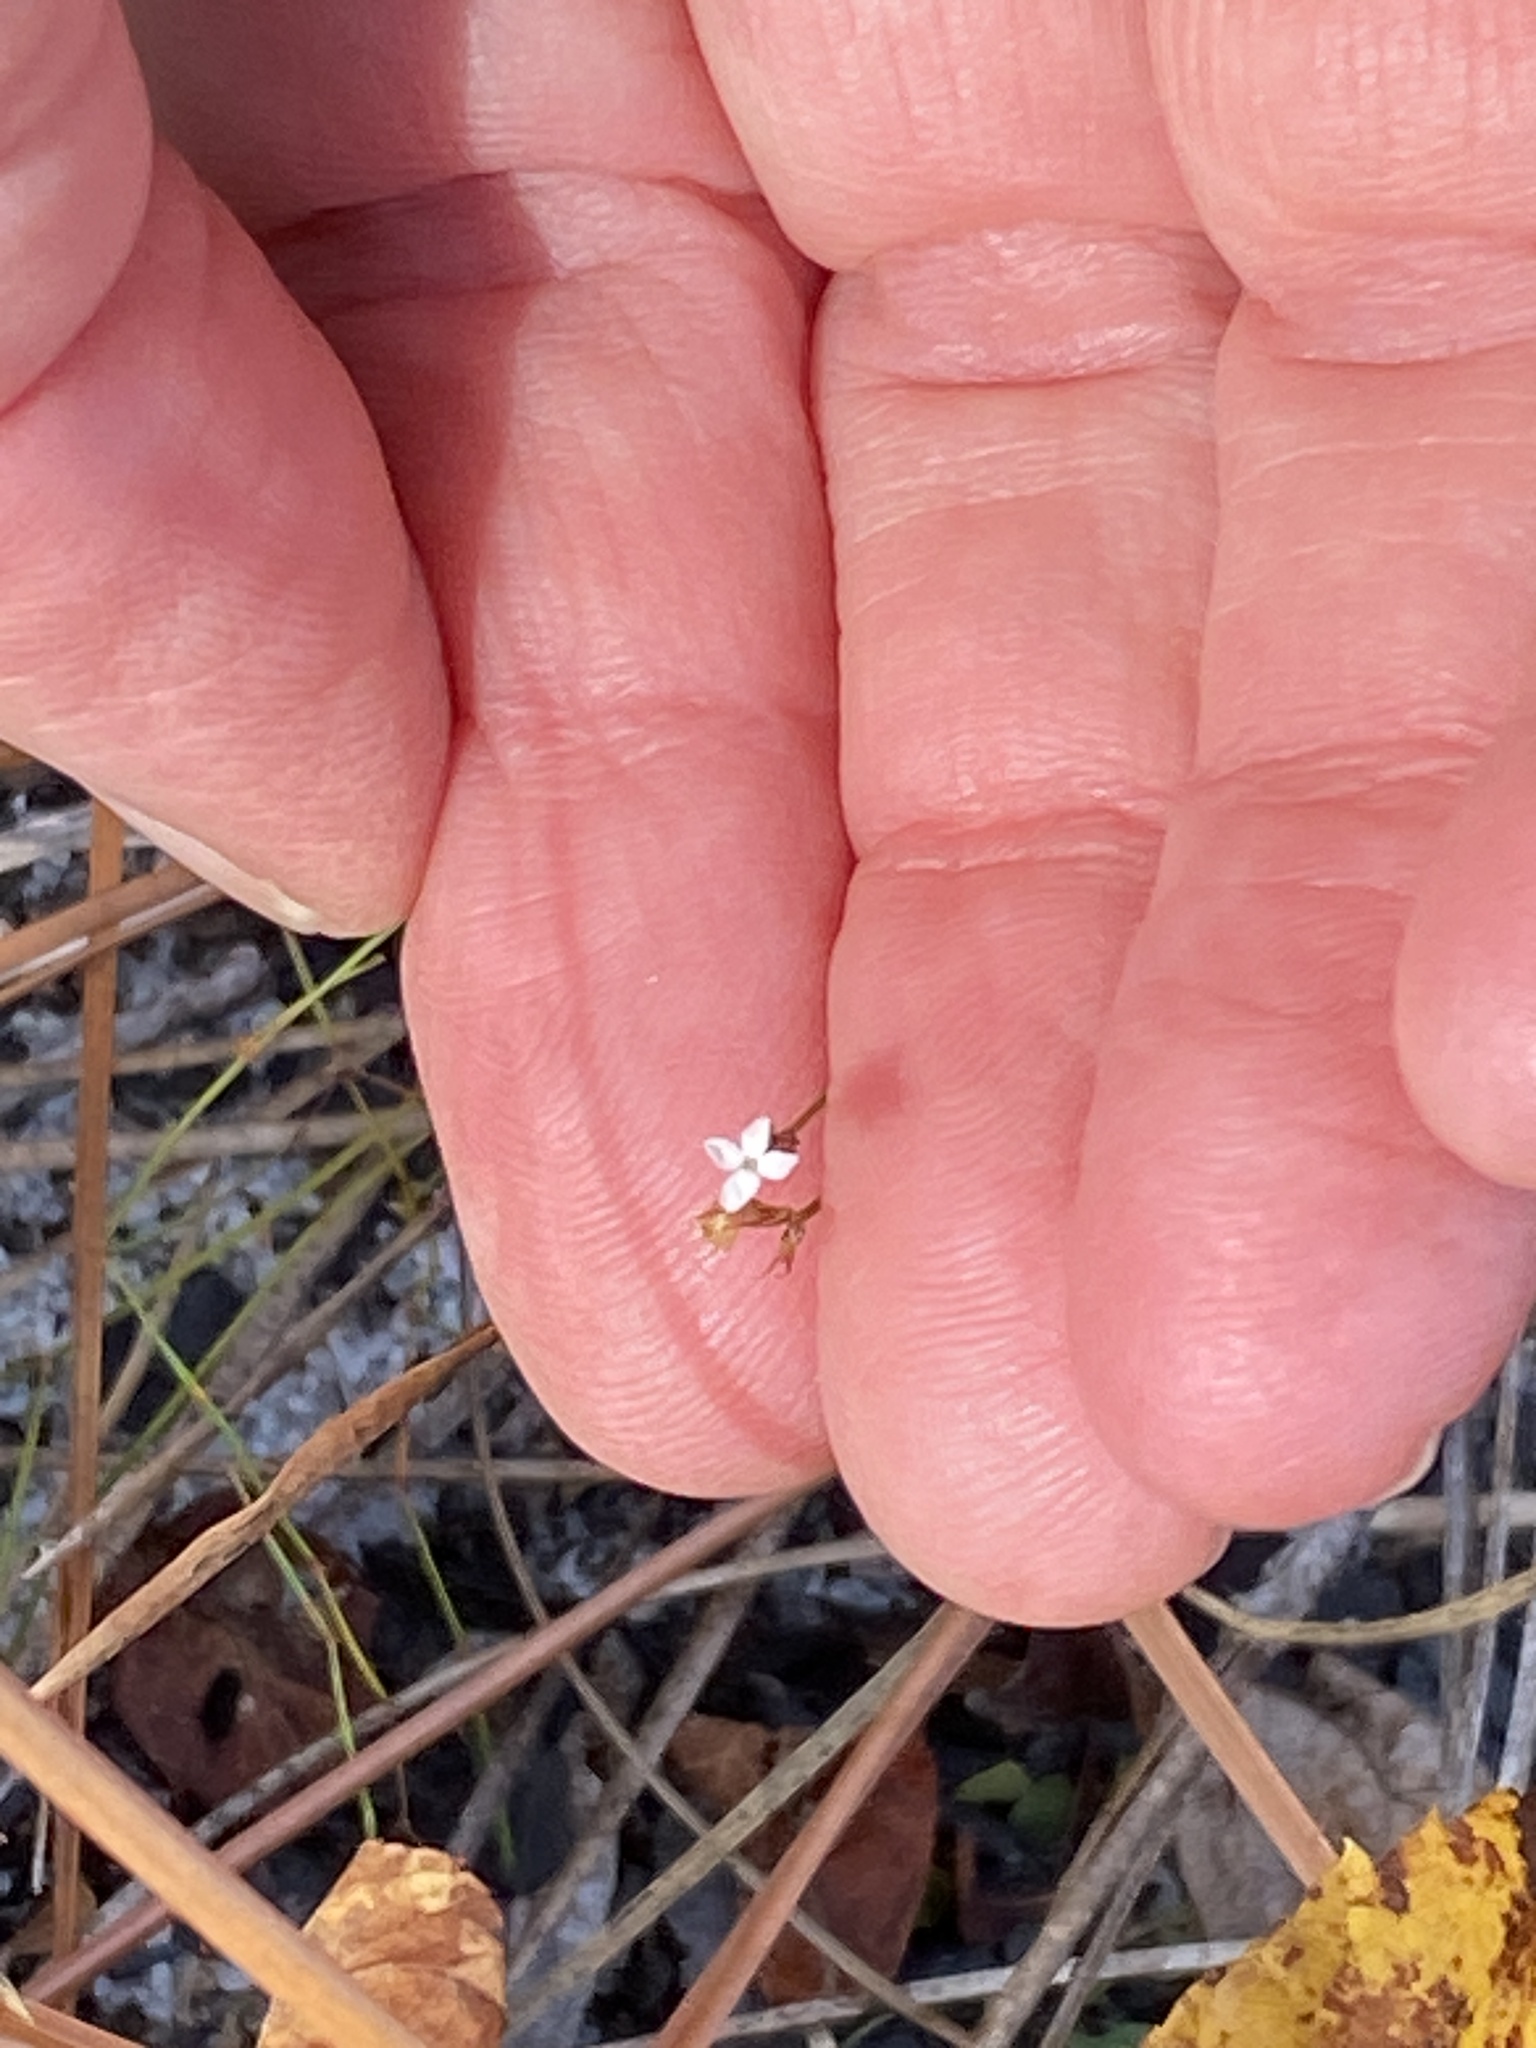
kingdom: Plantae
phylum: Tracheophyta
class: Magnoliopsida
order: Caryophyllales
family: Caryophyllaceae
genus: Stipulicida
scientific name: Stipulicida setacea
